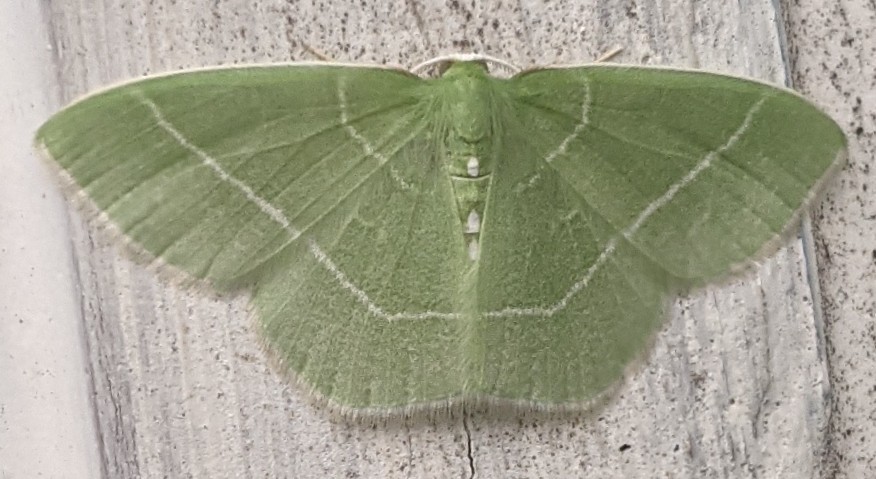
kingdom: Animalia
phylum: Arthropoda
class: Insecta
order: Lepidoptera
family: Geometridae
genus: Nemoria
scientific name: Nemoria mimosaria
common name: White-fringed emerald
